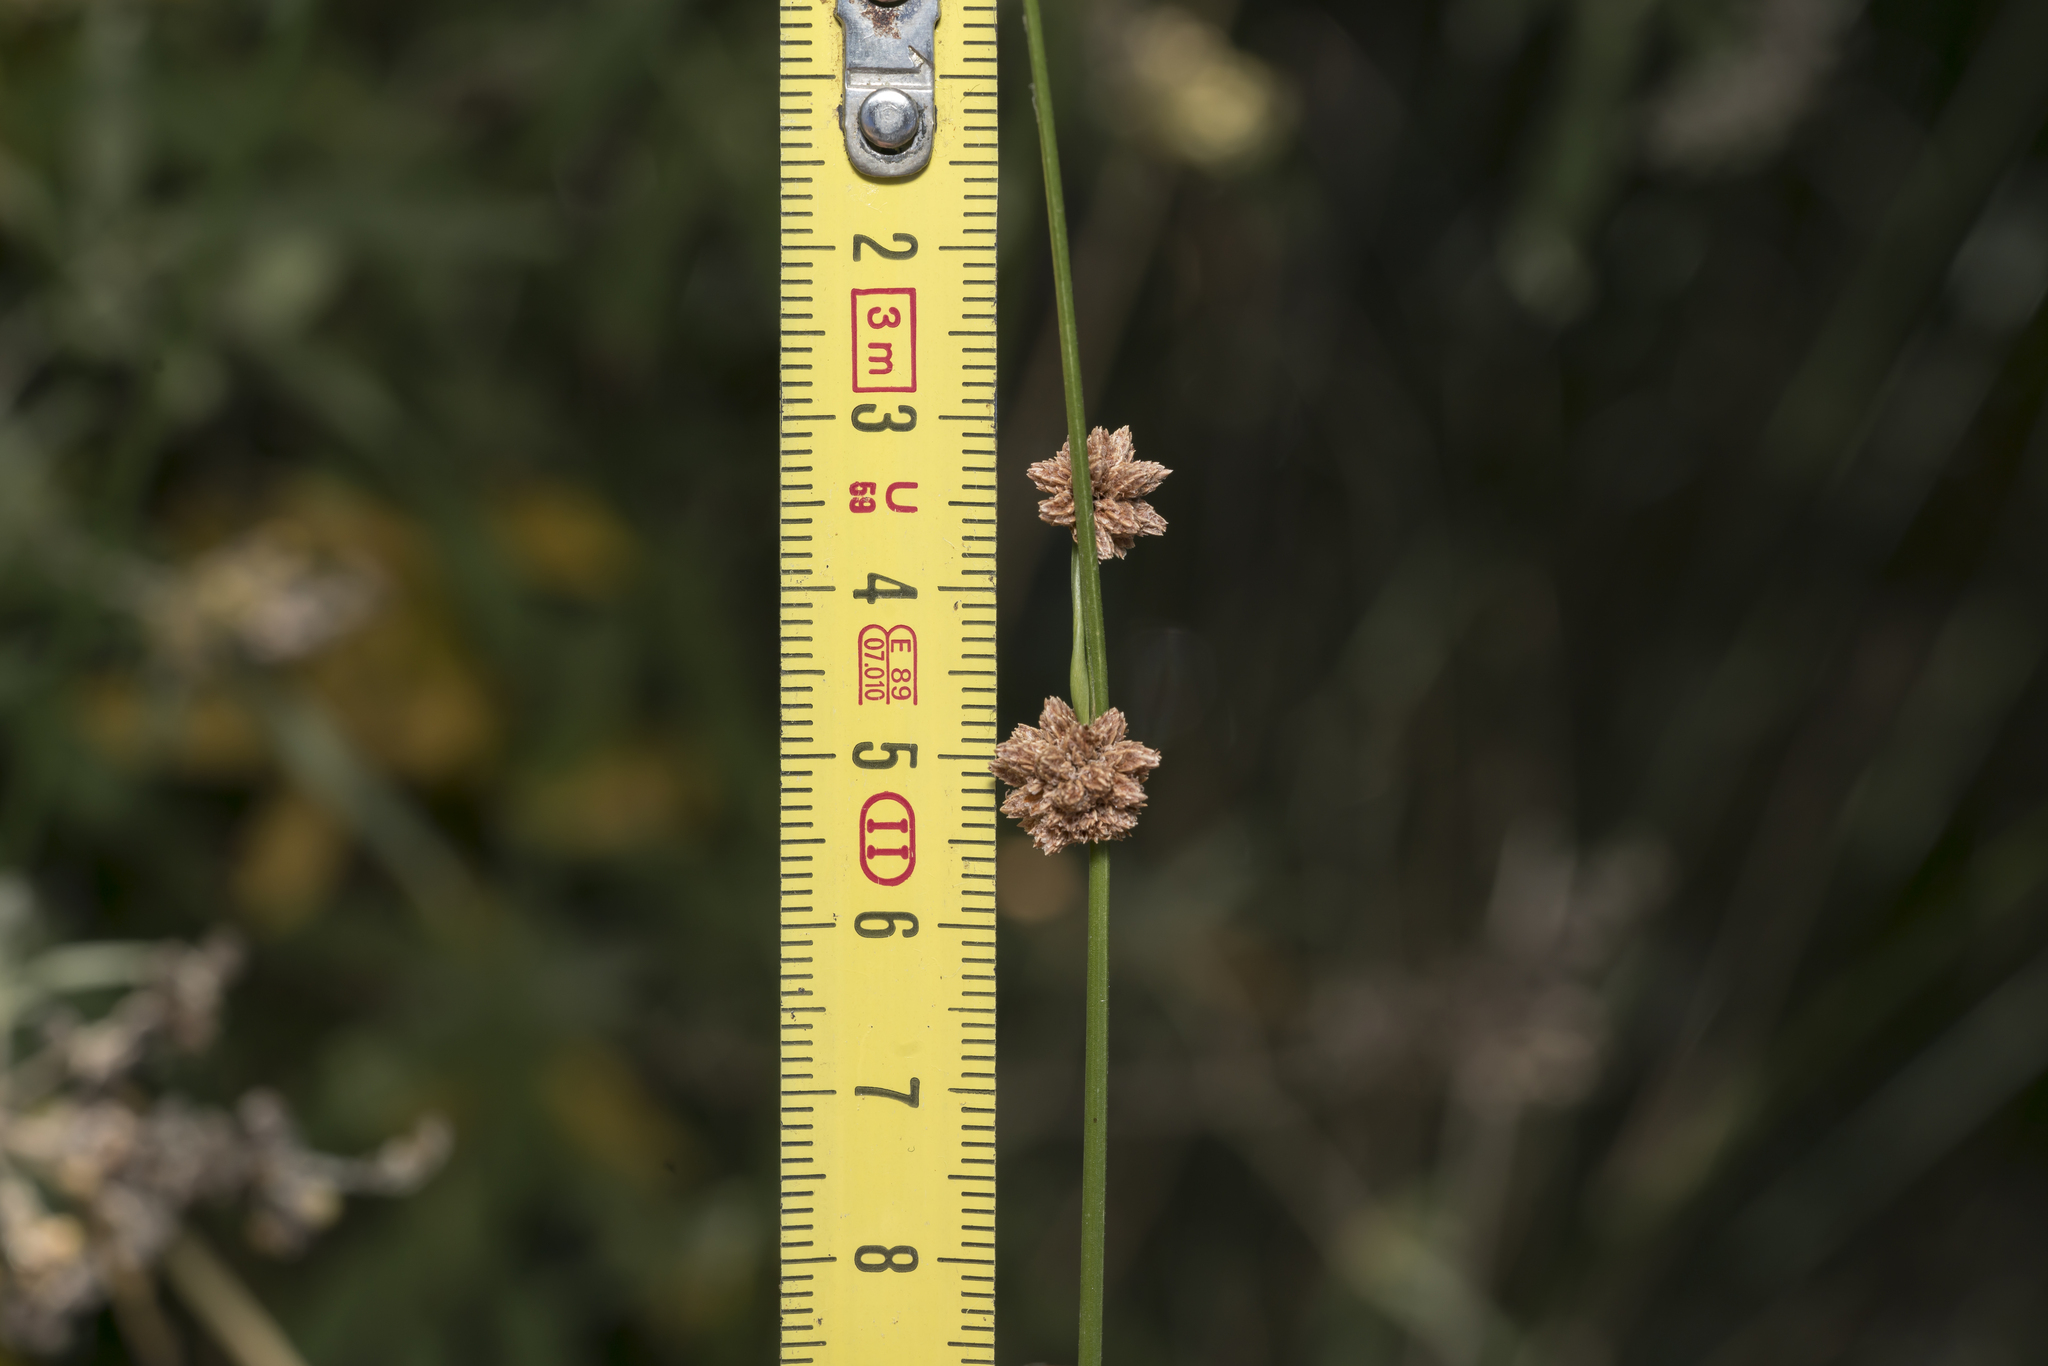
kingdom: Plantae
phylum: Tracheophyta
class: Liliopsida
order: Poales
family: Cyperaceae
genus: Scirpoides
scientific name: Scirpoides holoschoenus
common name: Round-headed club-rush
